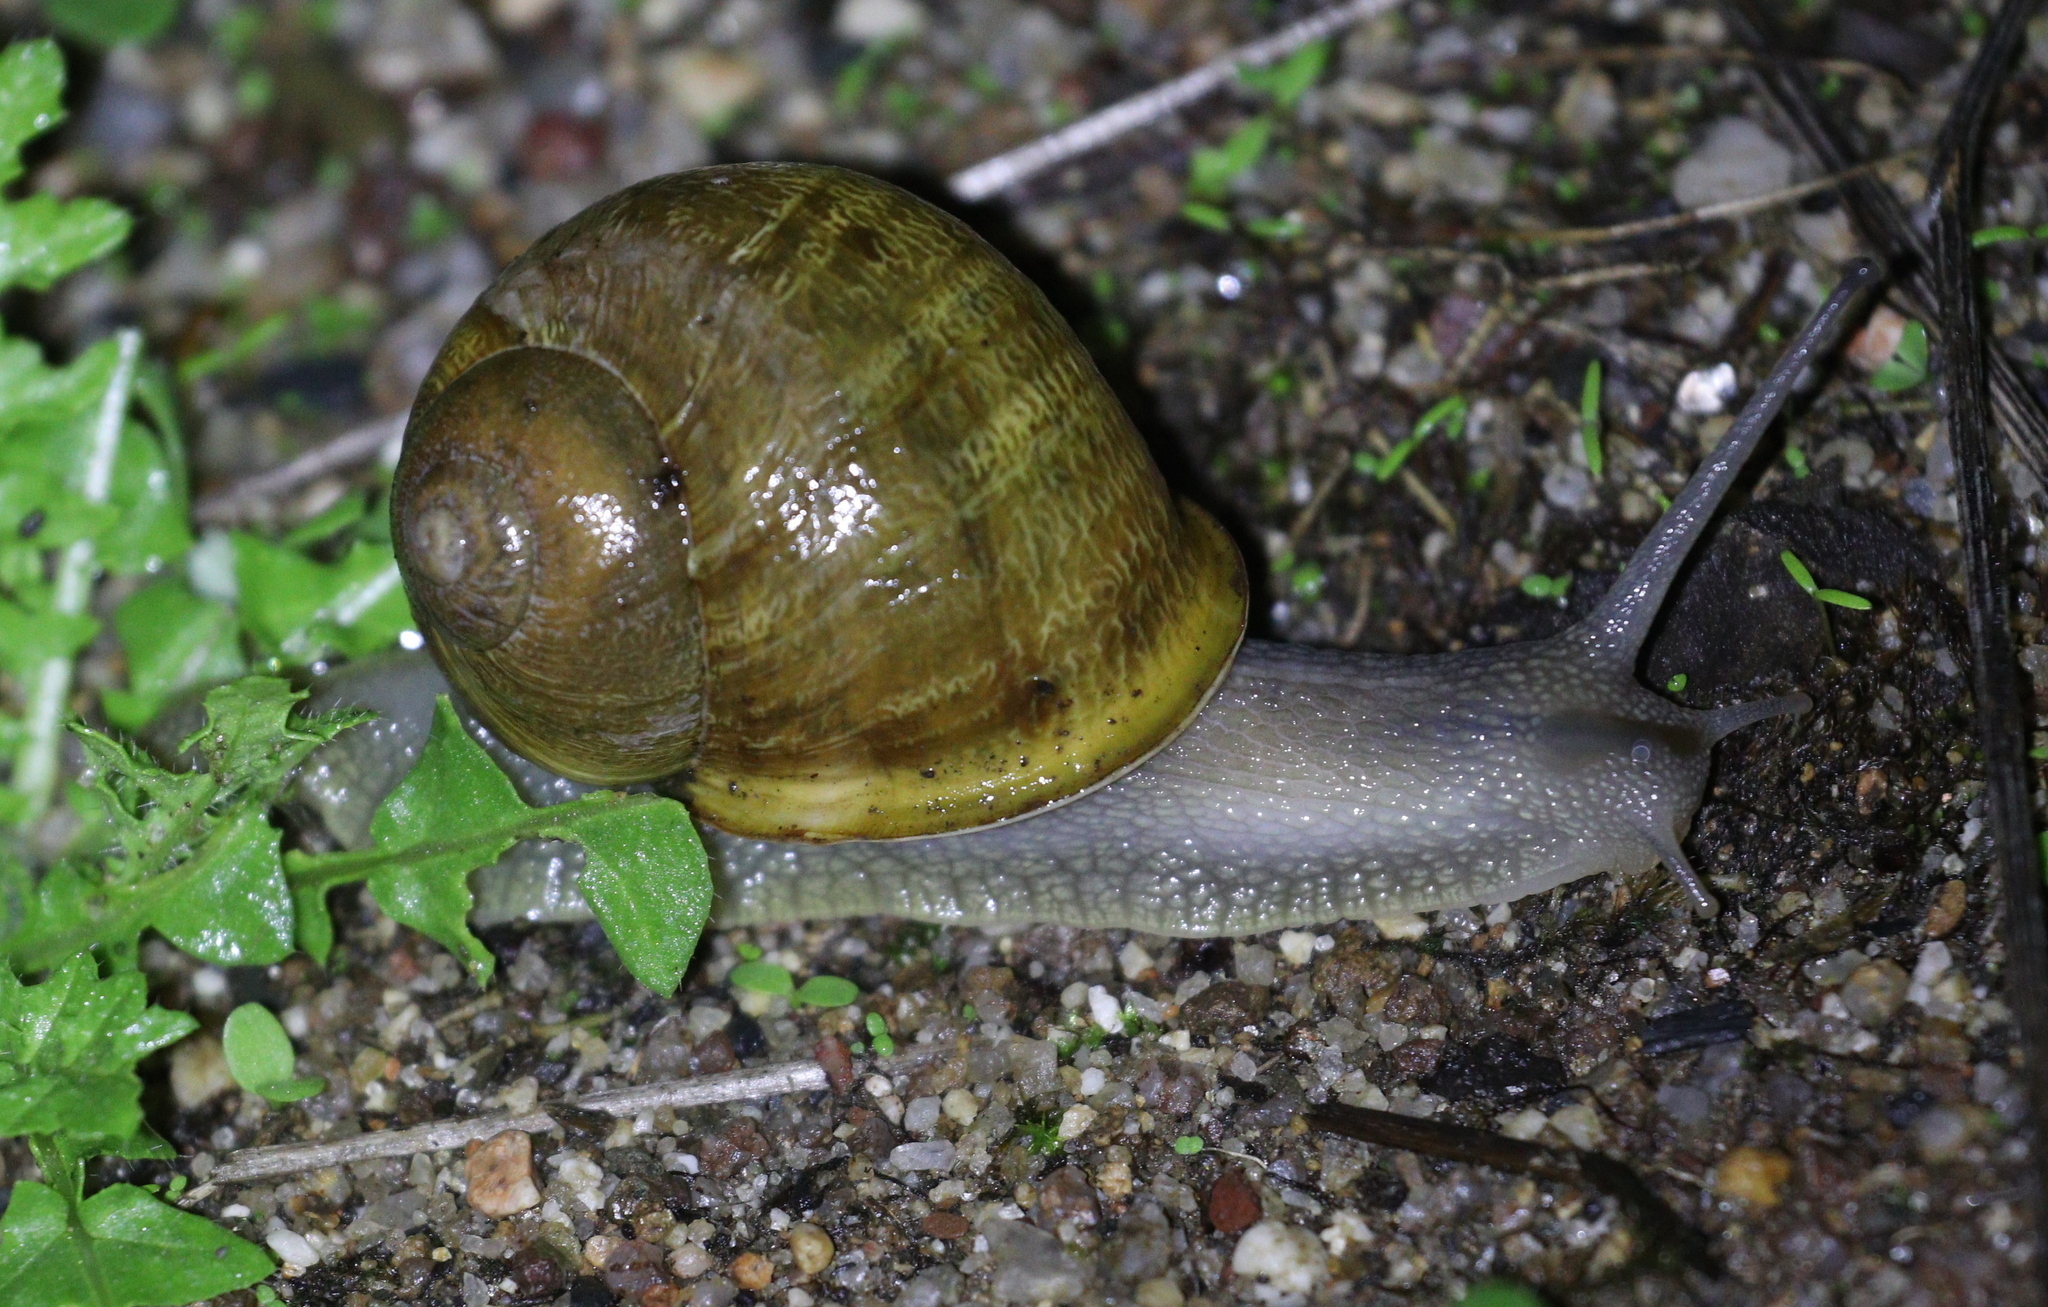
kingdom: Animalia
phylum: Mollusca
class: Gastropoda
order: Stylommatophora
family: Helicidae
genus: Cornu
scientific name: Cornu aspersum
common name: Brown garden snail
